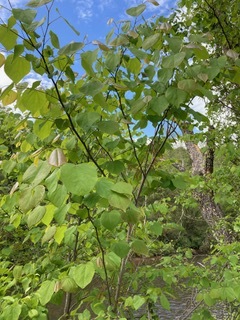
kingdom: Plantae
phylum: Tracheophyta
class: Magnoliopsida
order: Fabales
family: Fabaceae
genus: Cercis
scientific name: Cercis canadensis
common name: Eastern redbud
